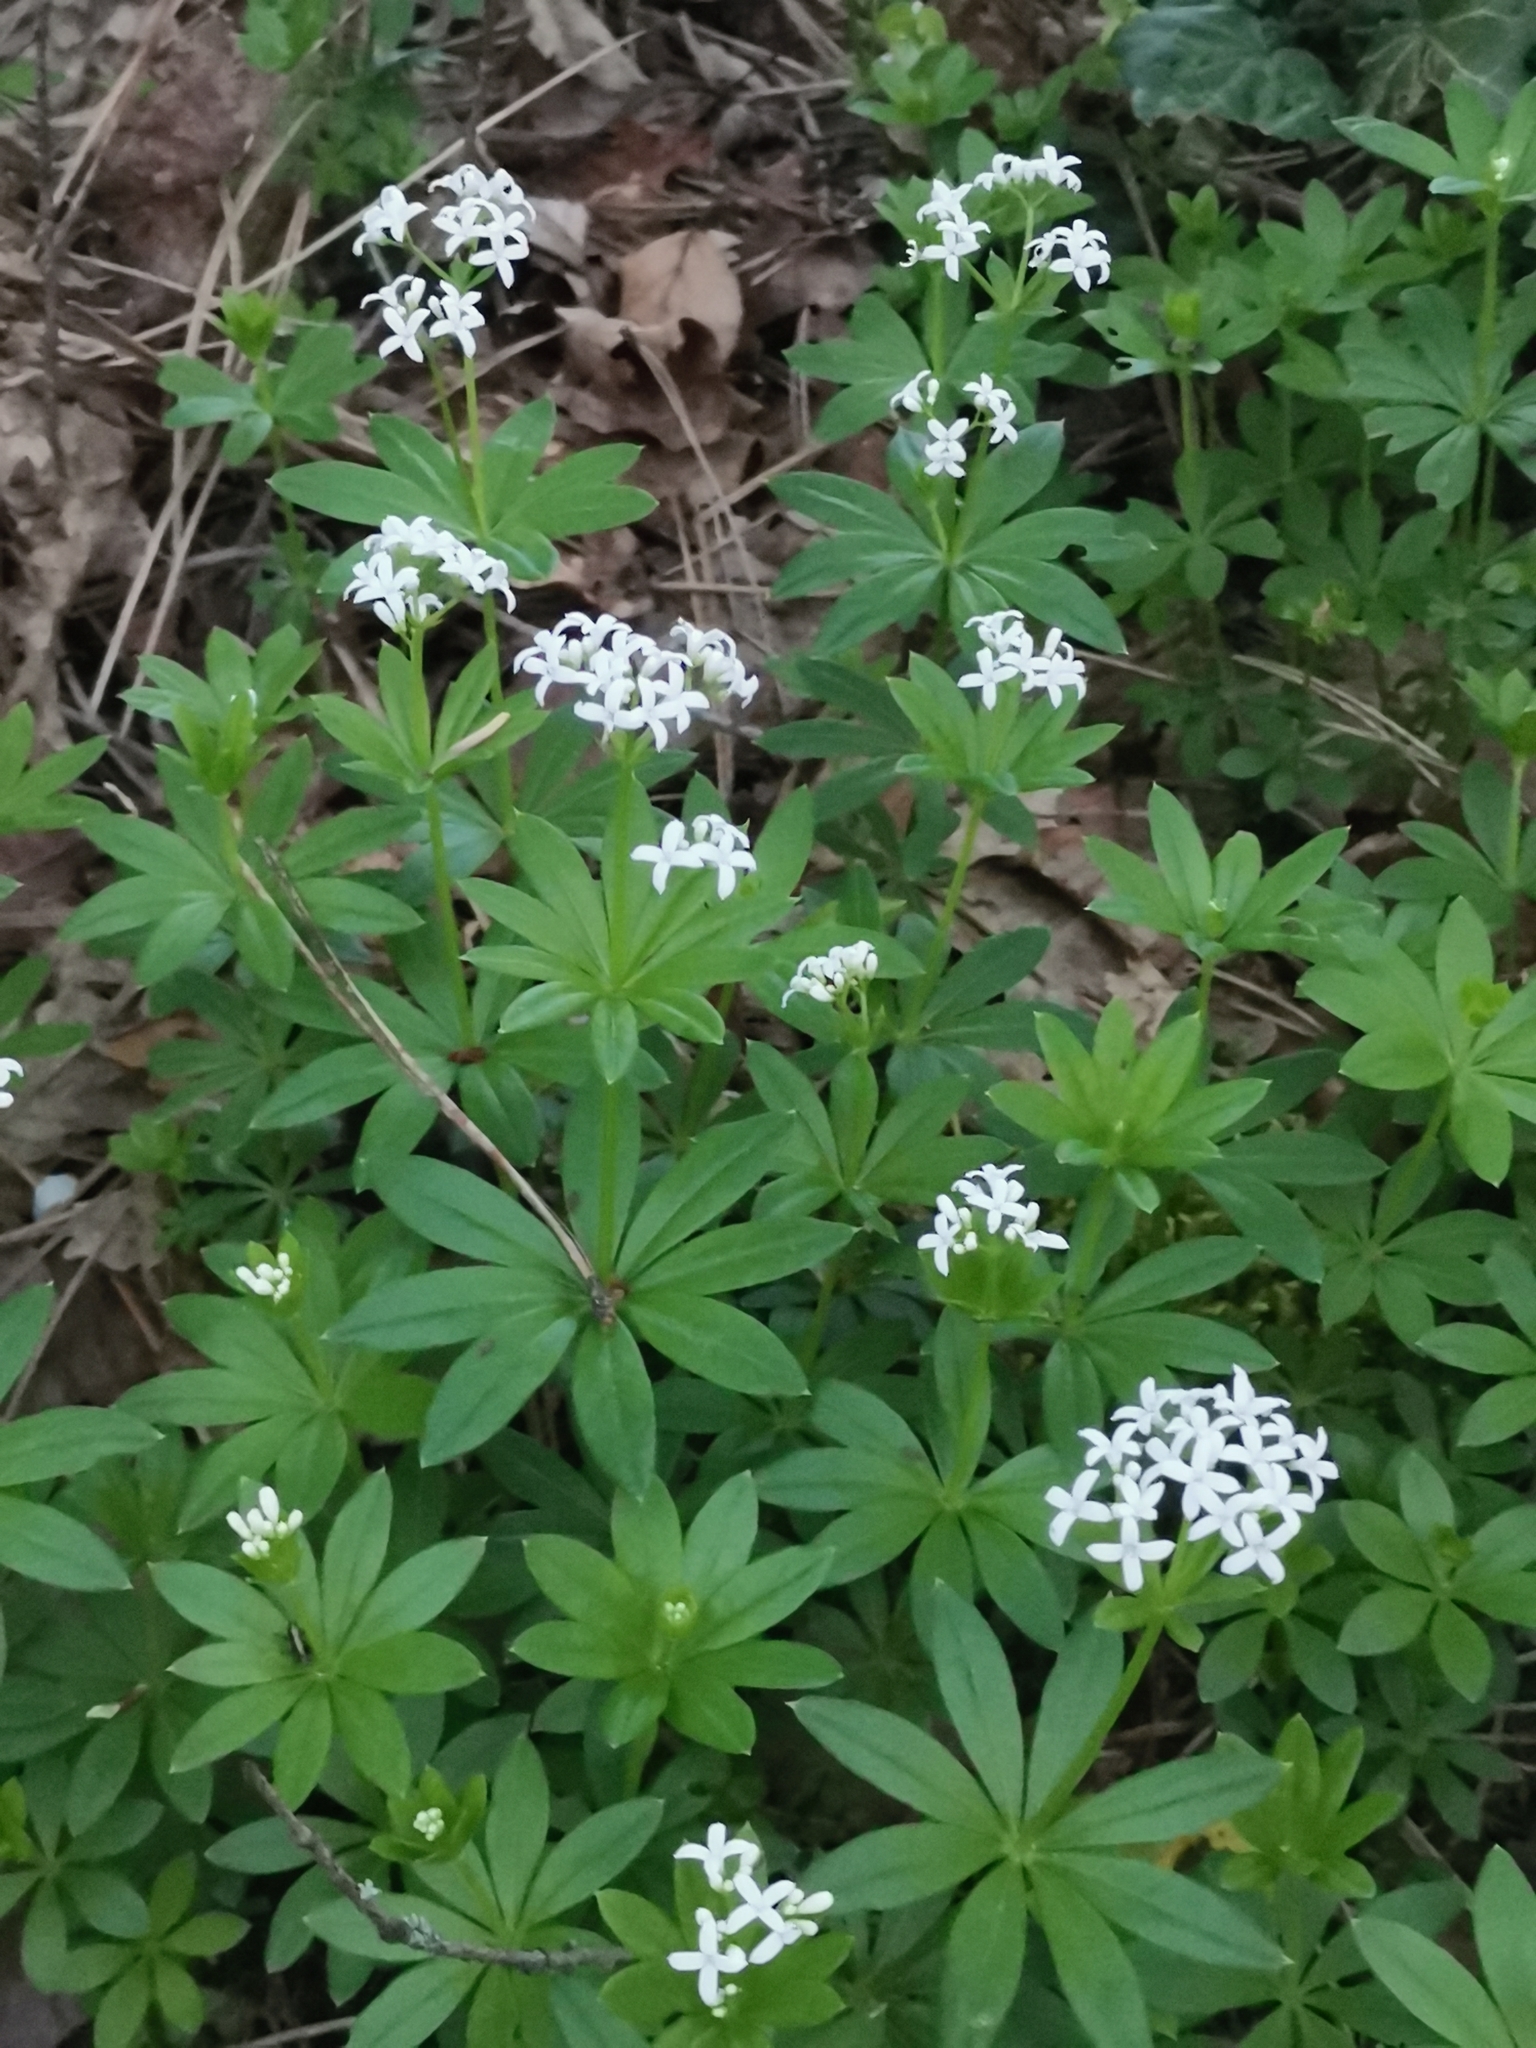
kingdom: Plantae
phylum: Tracheophyta
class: Magnoliopsida
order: Gentianales
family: Rubiaceae
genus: Galium
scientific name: Galium odoratum
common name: Sweet woodruff
